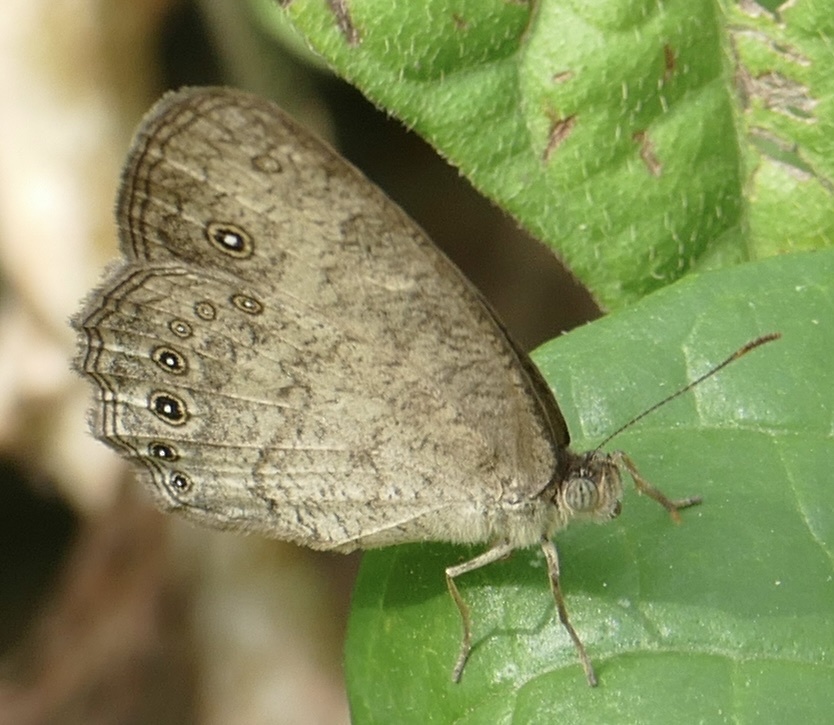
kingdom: Animalia
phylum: Arthropoda
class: Insecta
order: Lepidoptera
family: Nymphalidae
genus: Bicyclus
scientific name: Bicyclus dorothea
